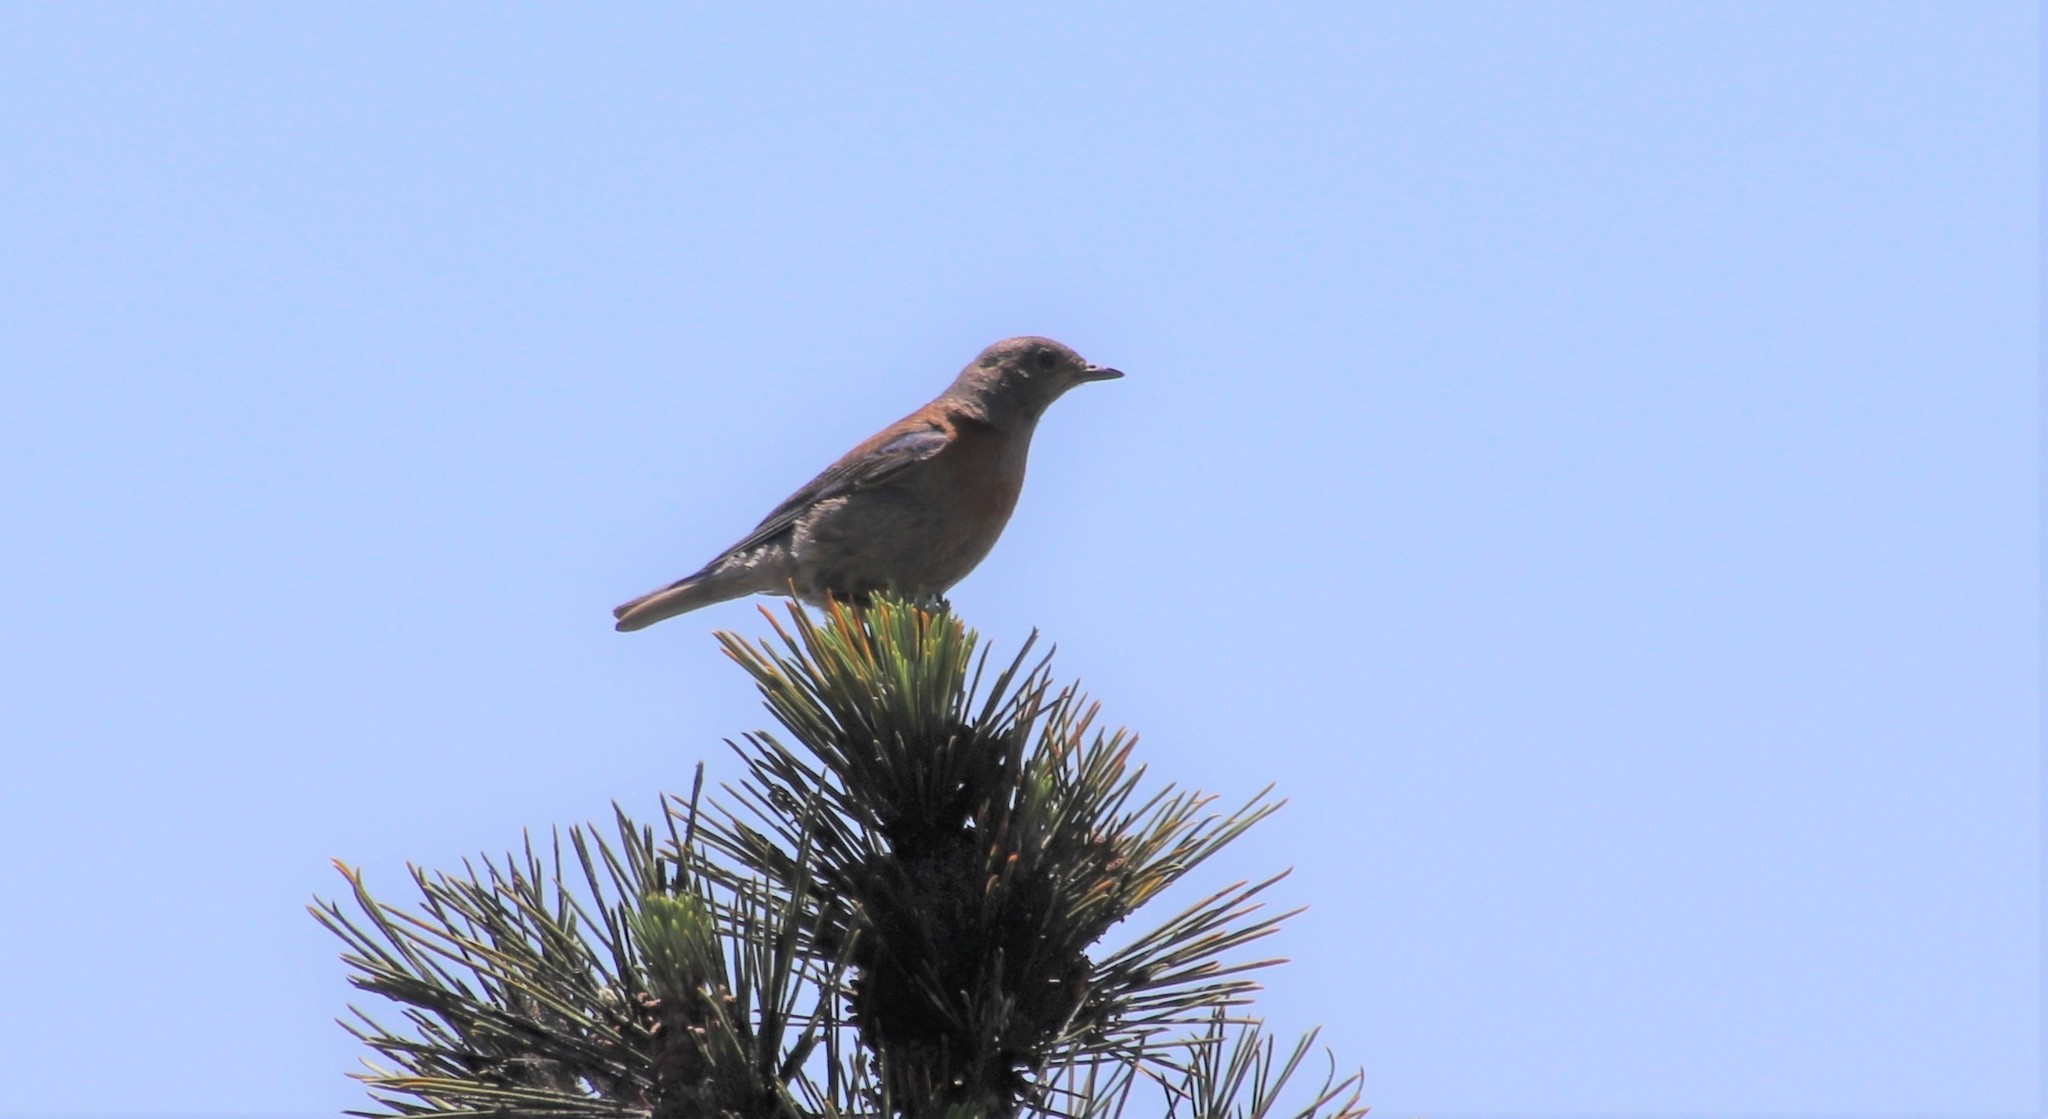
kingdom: Animalia
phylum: Chordata
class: Aves
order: Passeriformes
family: Turdidae
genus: Sialia
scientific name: Sialia mexicana
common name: Western bluebird
